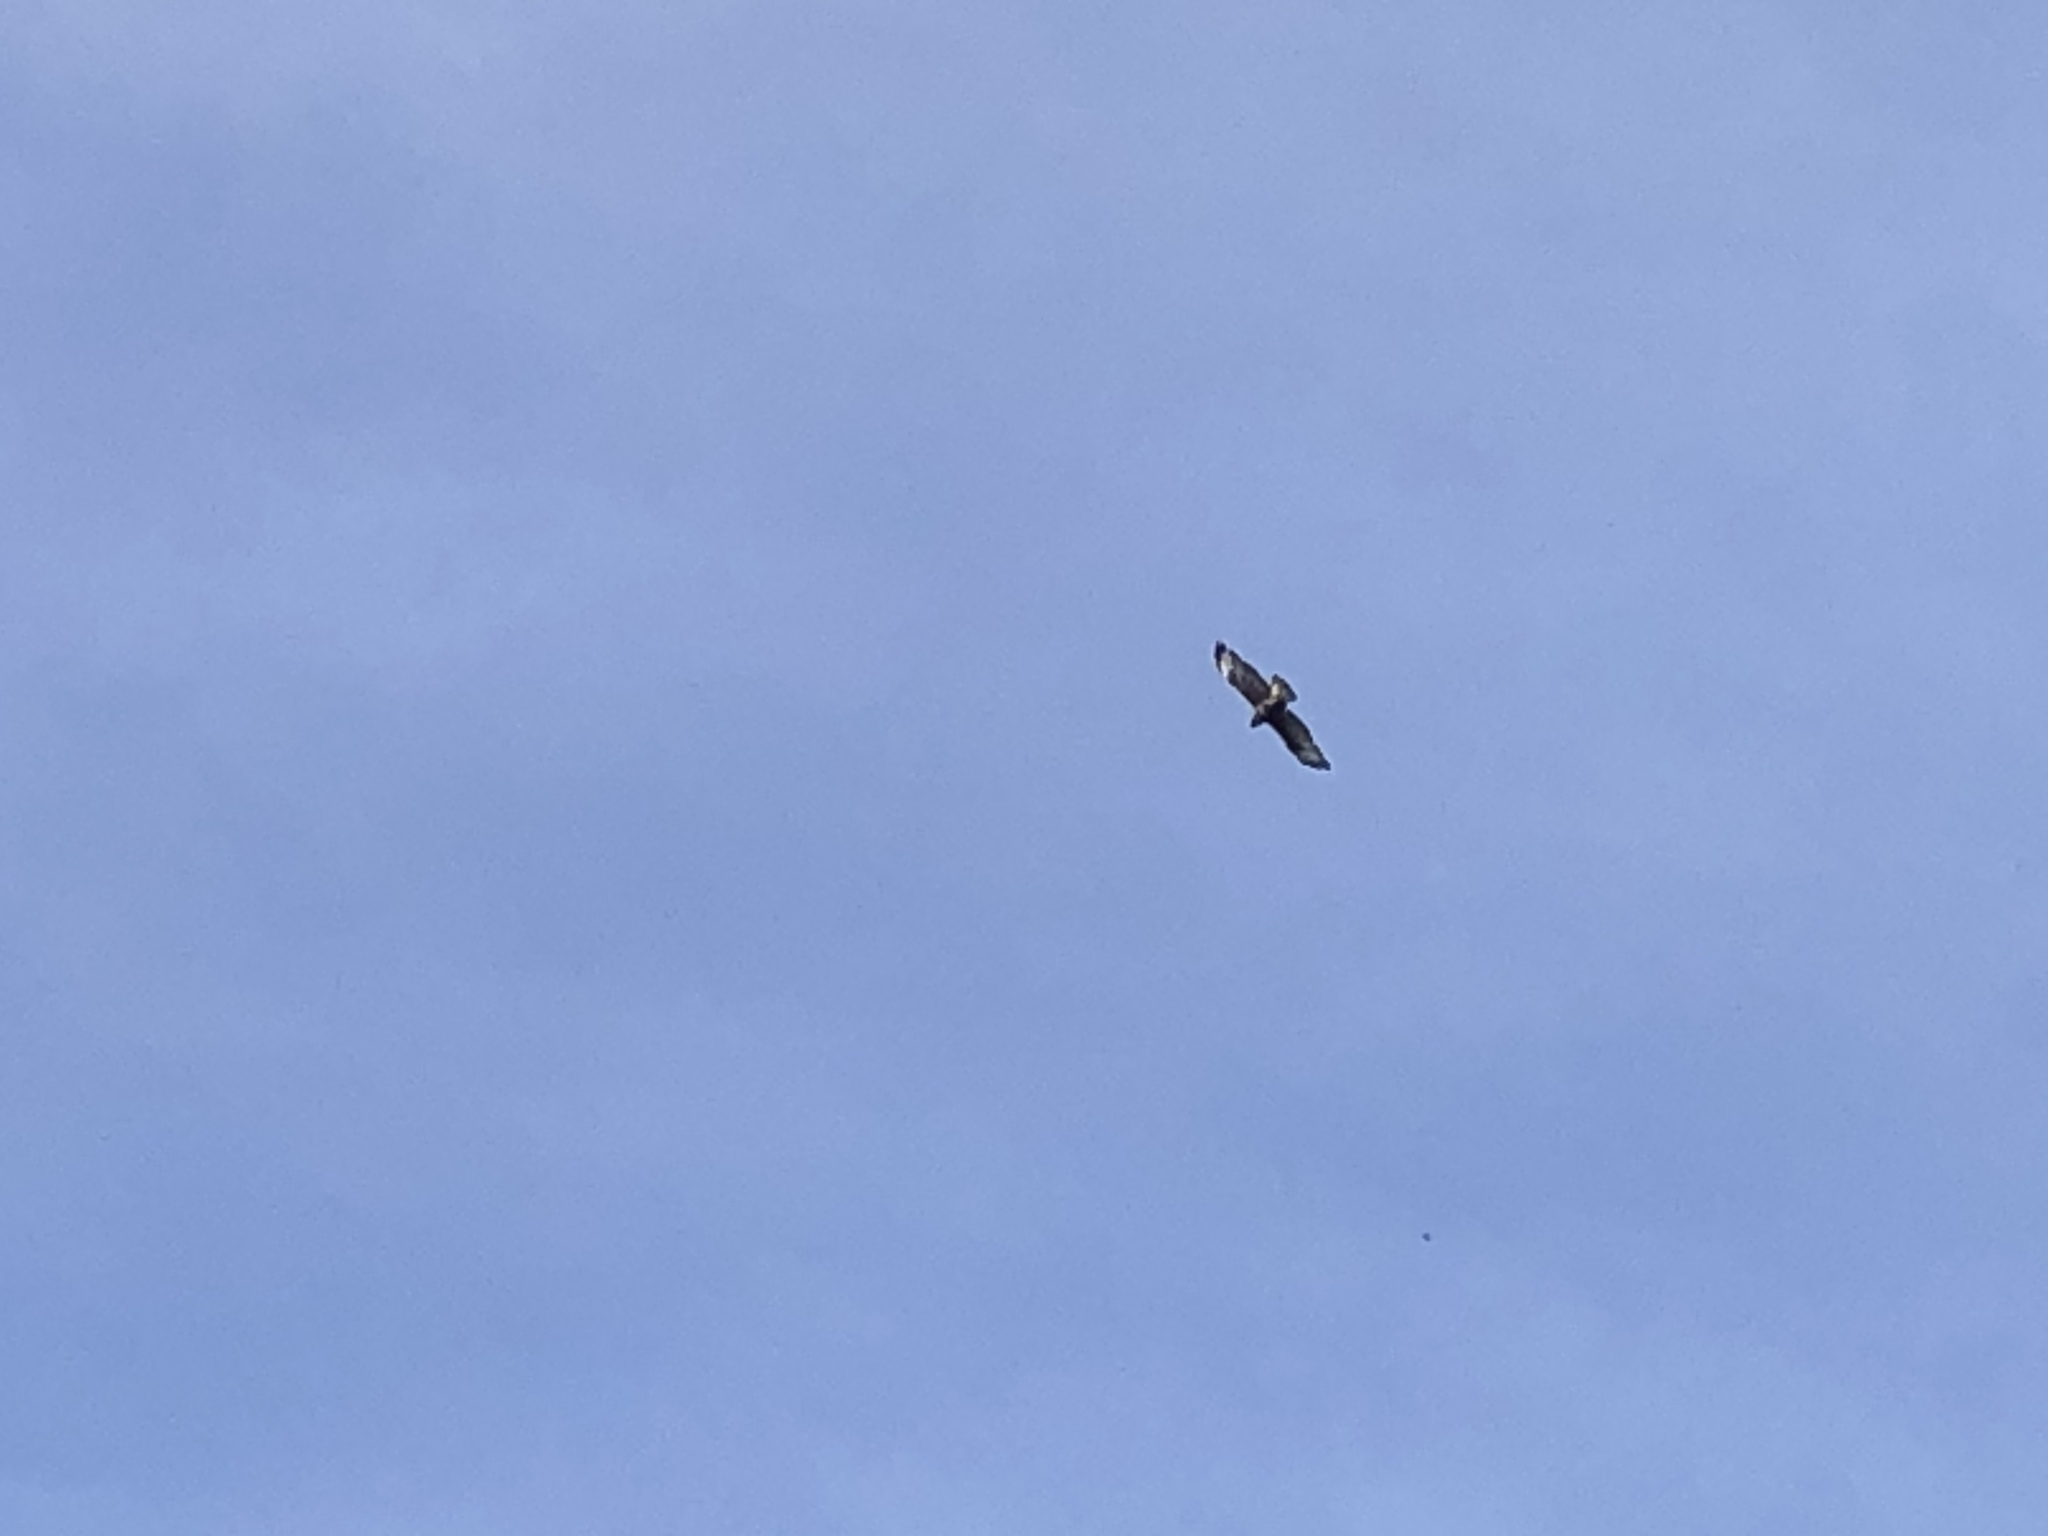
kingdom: Animalia
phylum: Chordata
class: Aves
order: Accipitriformes
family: Accipitridae
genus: Buteo
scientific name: Buteo buteo
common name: Common buzzard
